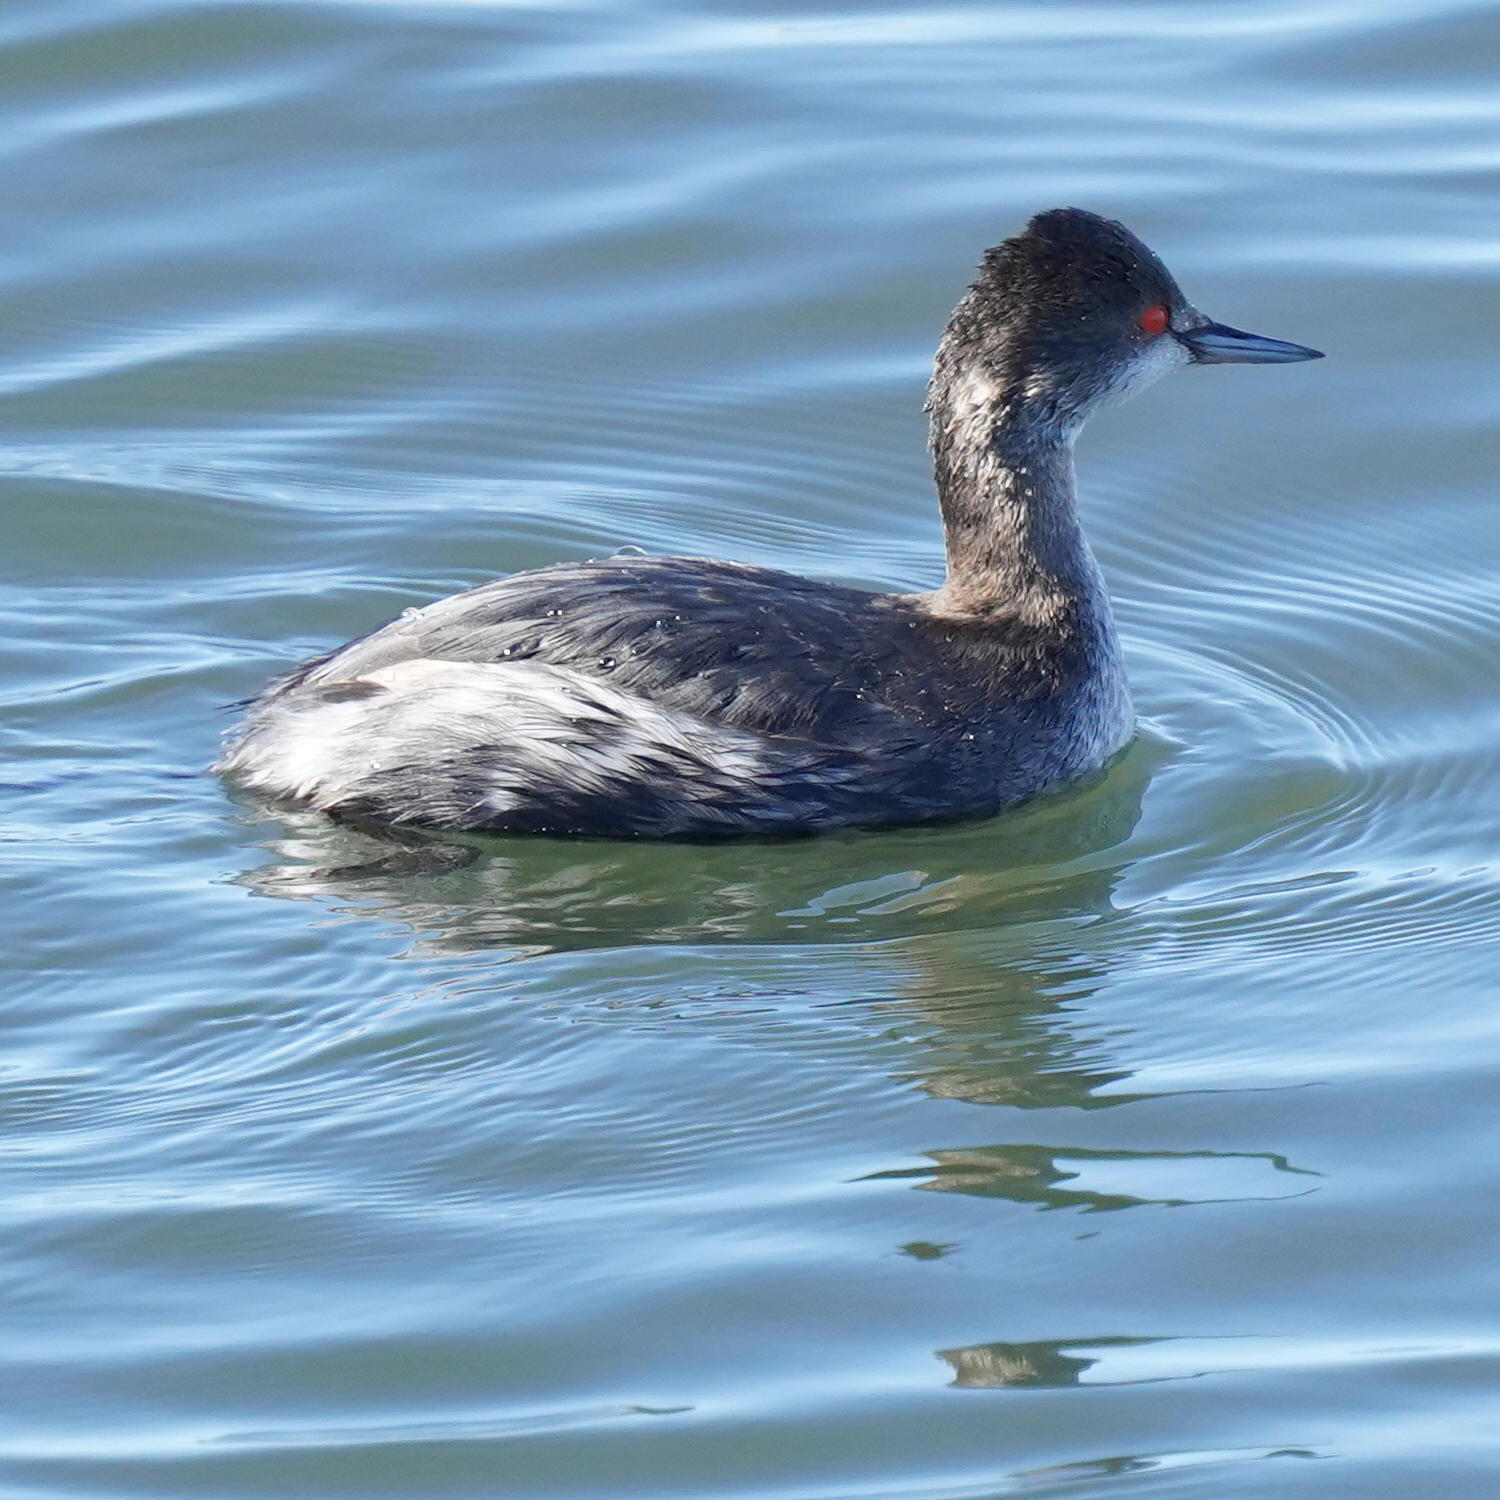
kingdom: Animalia
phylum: Chordata
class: Aves
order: Podicipediformes
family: Podicipedidae
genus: Podiceps
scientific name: Podiceps nigricollis
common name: Black-necked grebe
